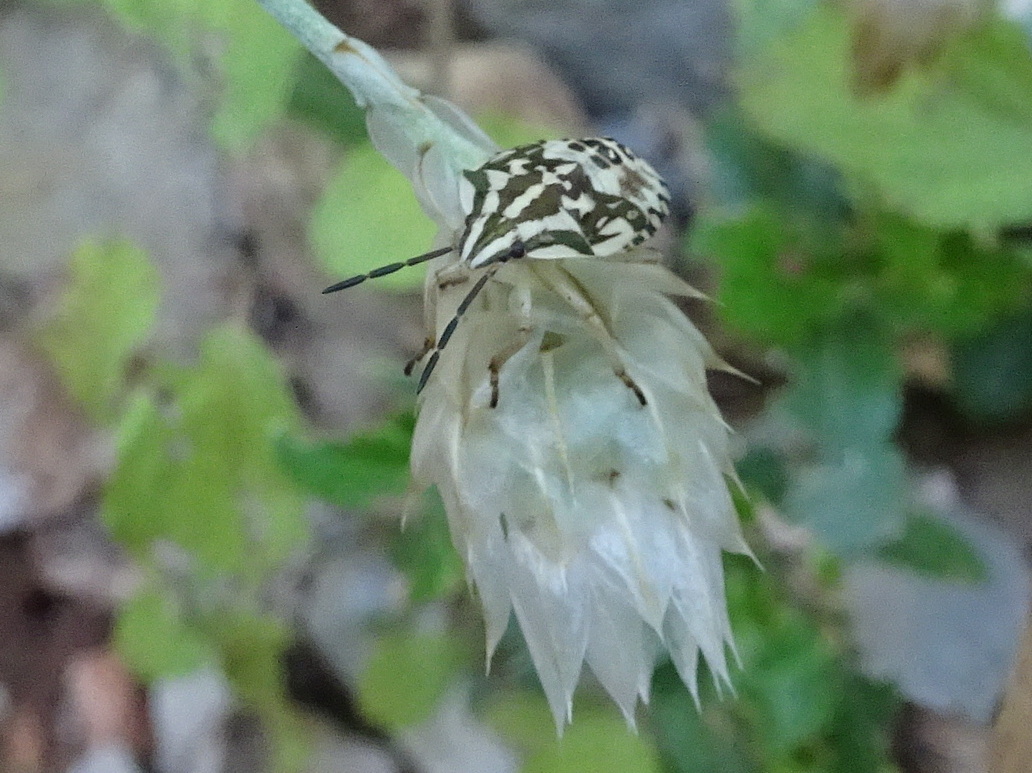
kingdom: Animalia
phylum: Arthropoda
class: Insecta
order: Hemiptera
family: Pentatomidae
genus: Carpocoris
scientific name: Carpocoris purpureipennis
